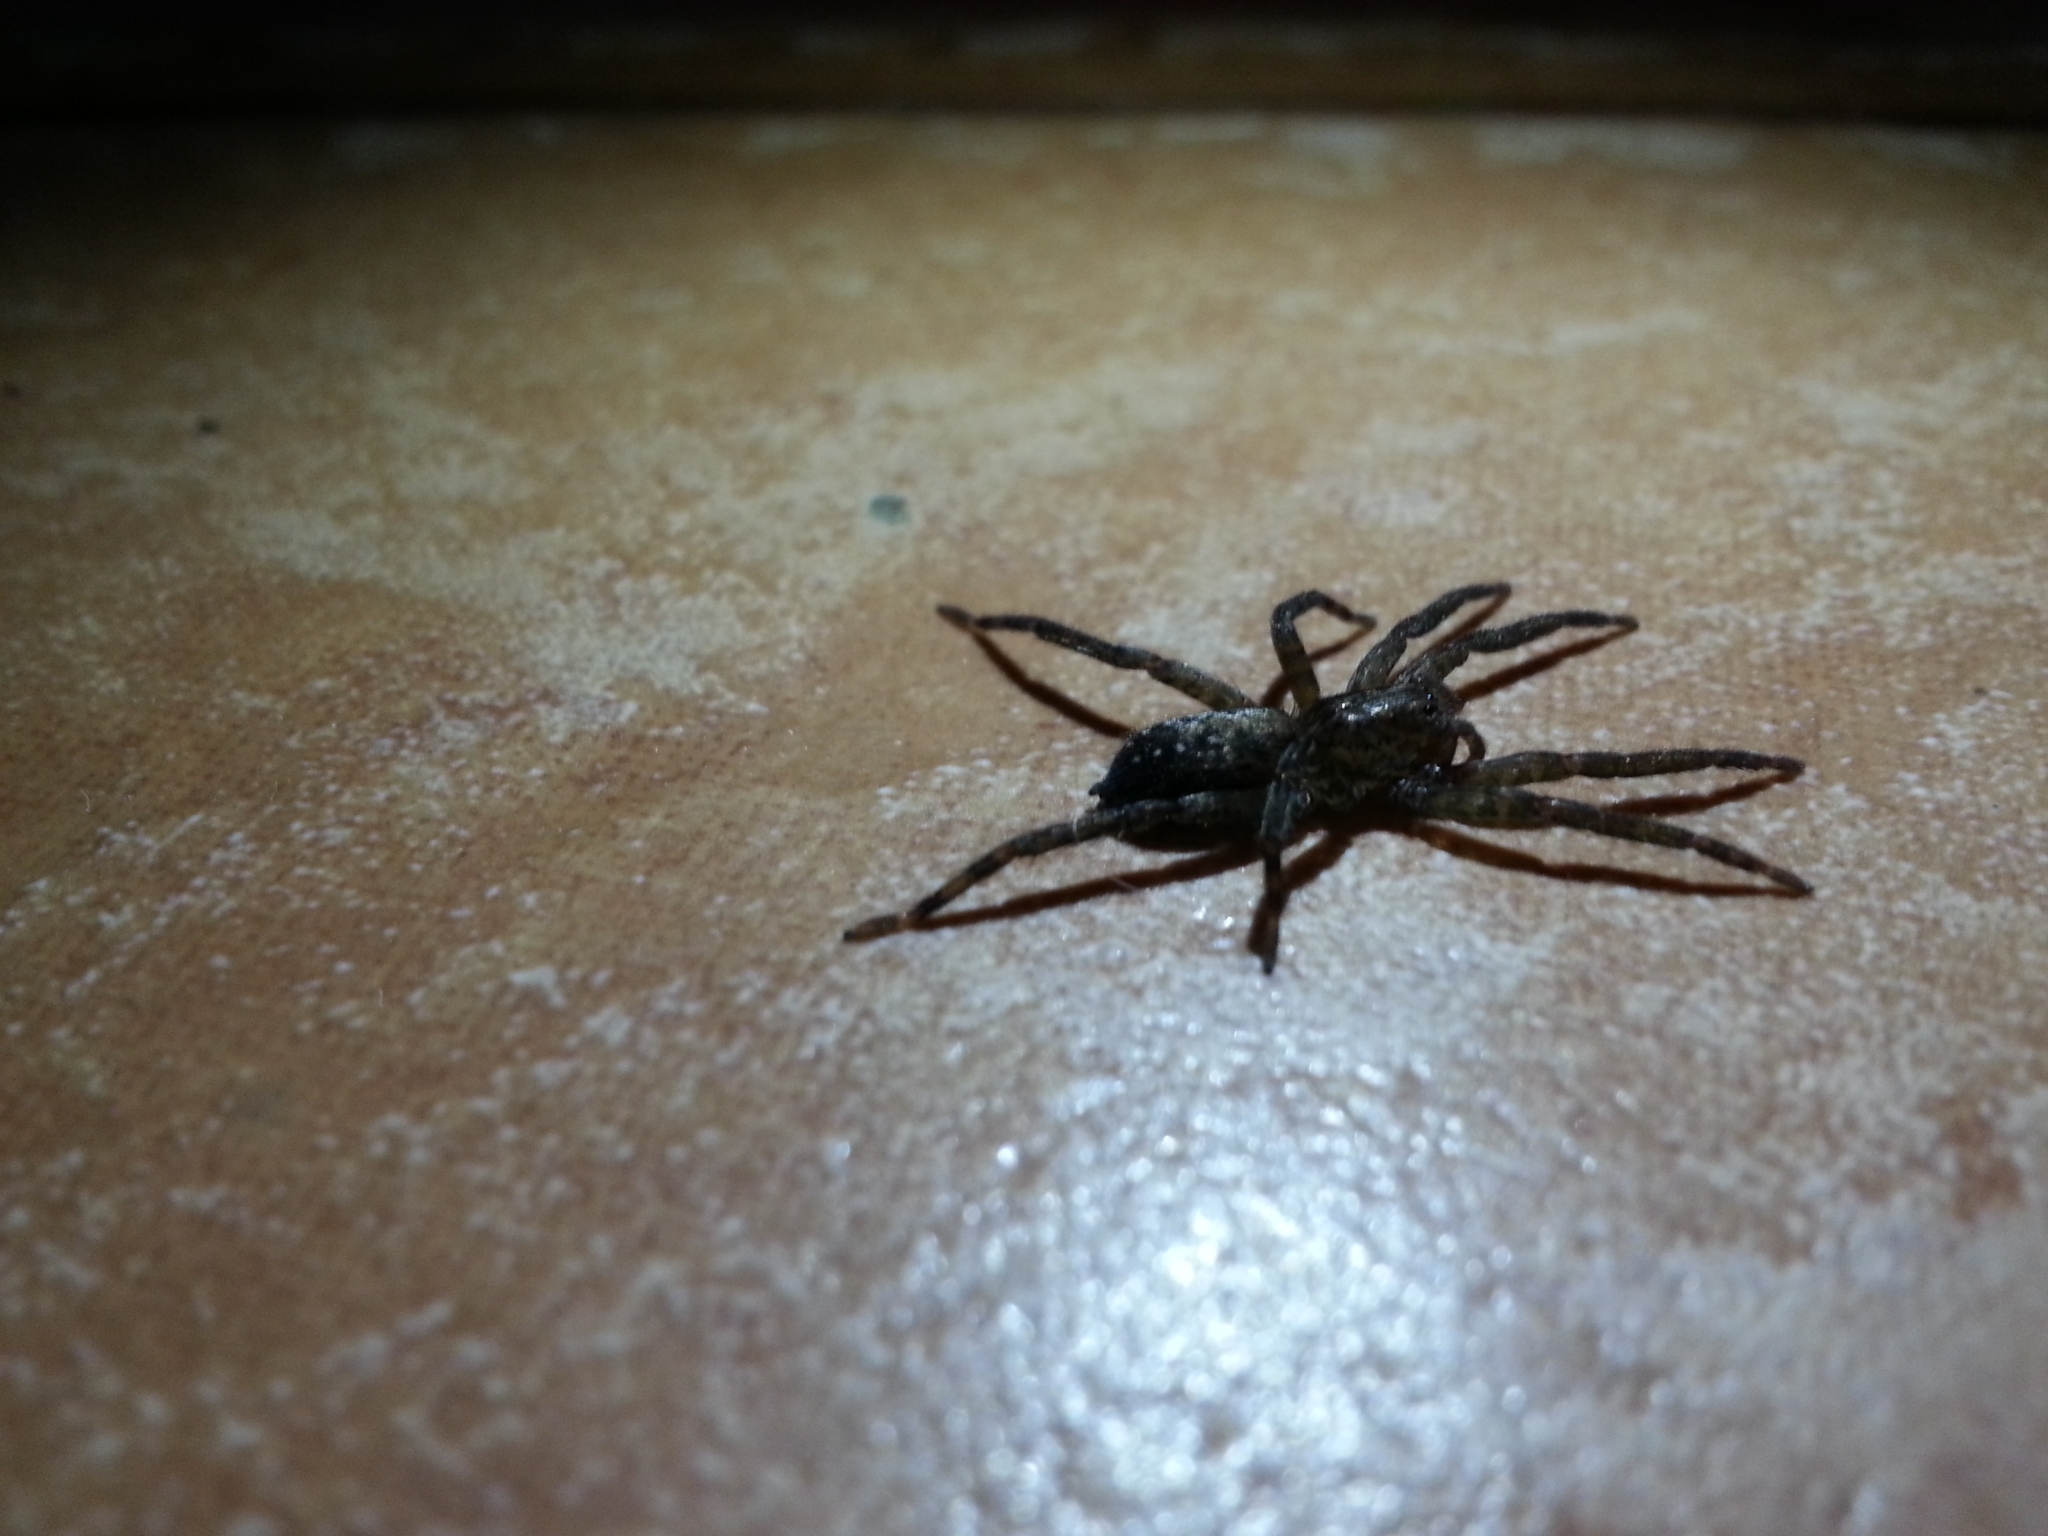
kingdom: Animalia
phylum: Arthropoda
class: Arachnida
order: Araneae
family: Ctenidae
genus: Asthenoctenus
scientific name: Asthenoctenus borellii
